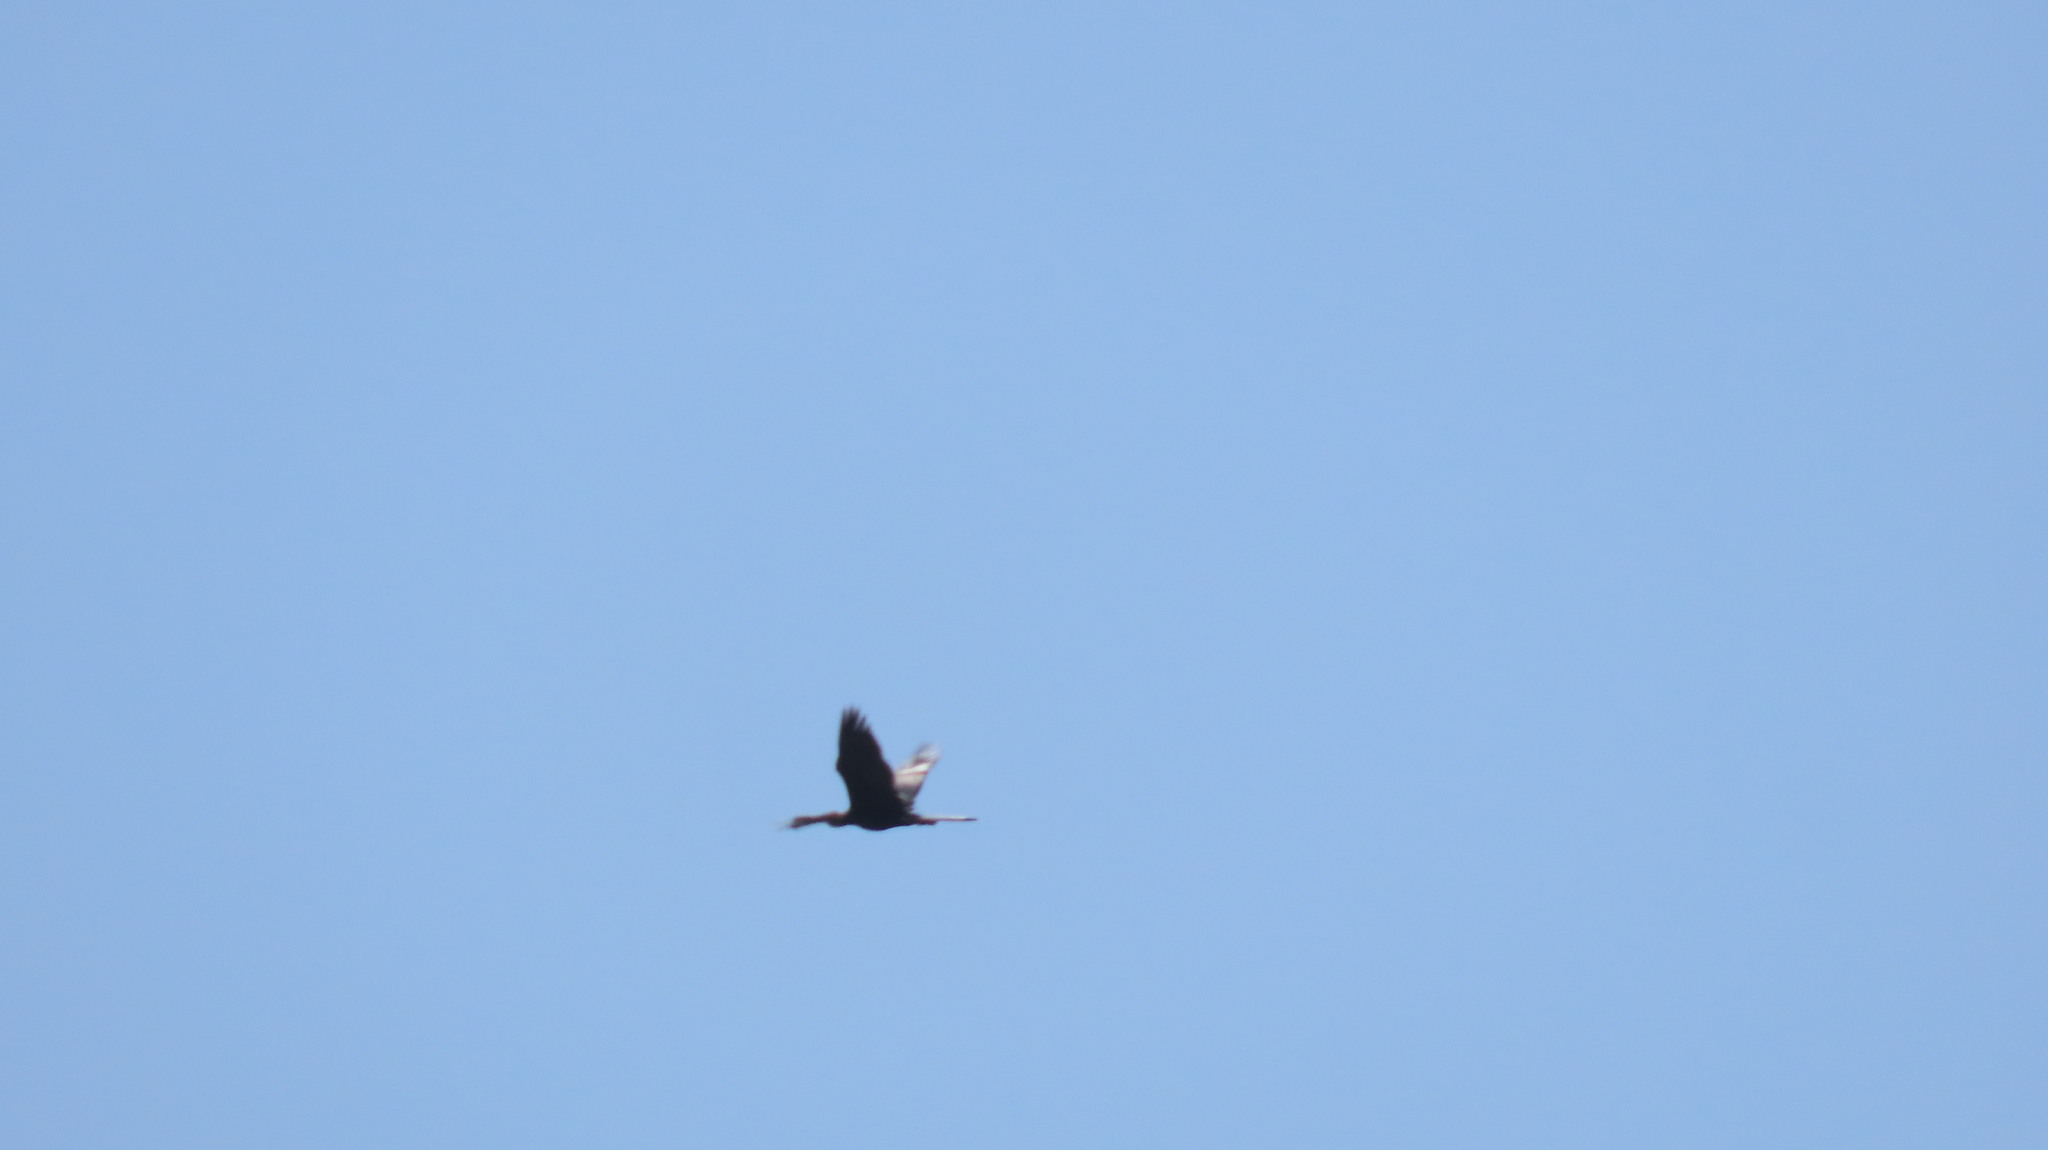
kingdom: Animalia
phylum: Chordata
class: Aves
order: Suliformes
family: Anhingidae
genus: Anhinga
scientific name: Anhinga melanogaster
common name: Oriental darter
